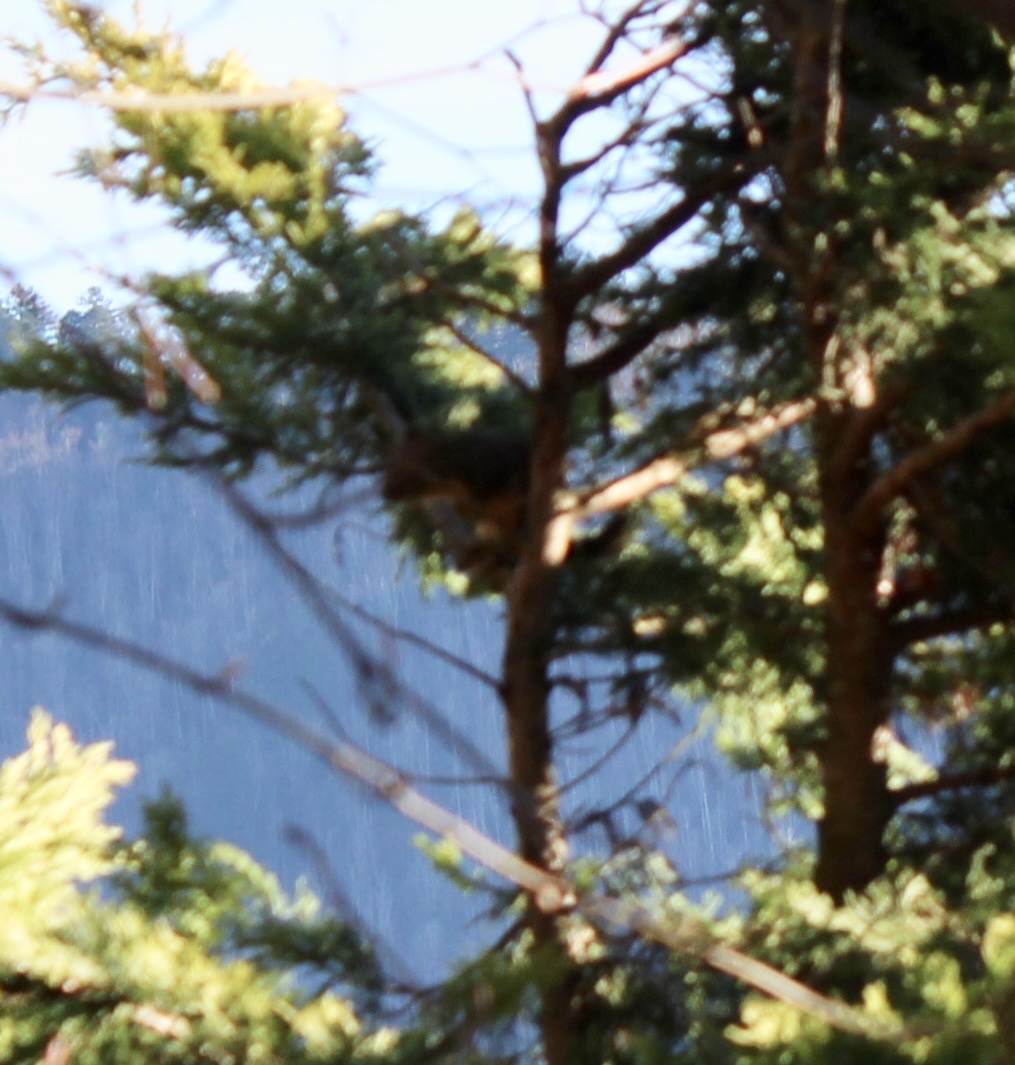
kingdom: Animalia
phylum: Chordata
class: Mammalia
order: Rodentia
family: Sciuridae
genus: Tamiasciurus
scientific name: Tamiasciurus douglasii
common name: Douglas's squirrel
